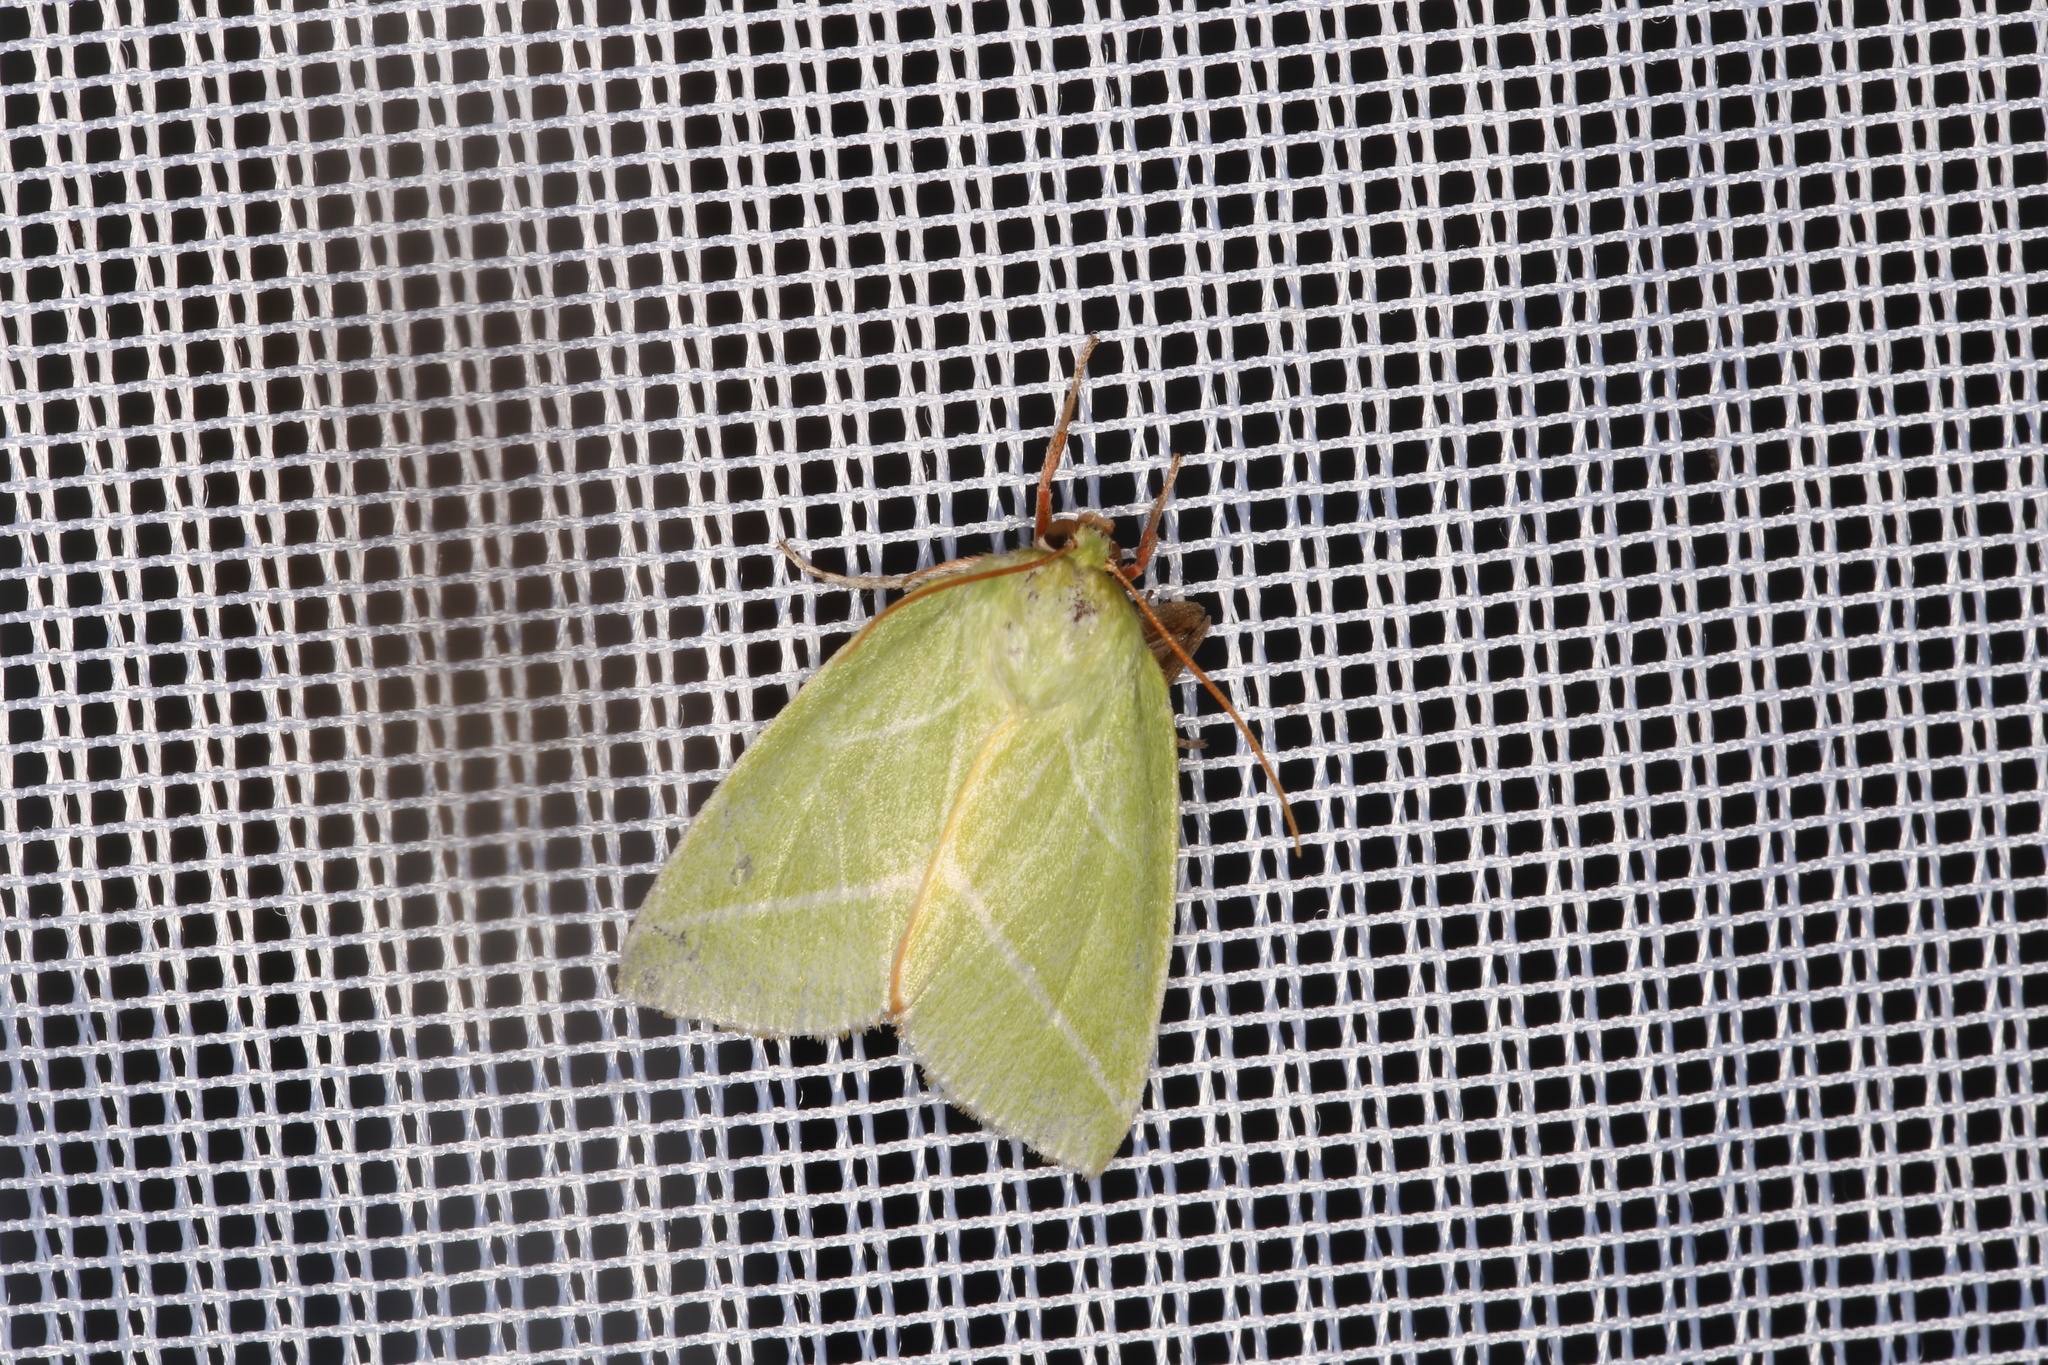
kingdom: Animalia
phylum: Arthropoda
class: Insecta
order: Lepidoptera
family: Nolidae
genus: Pseudoips
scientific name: Pseudoips prasinana
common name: Green silver-lines
